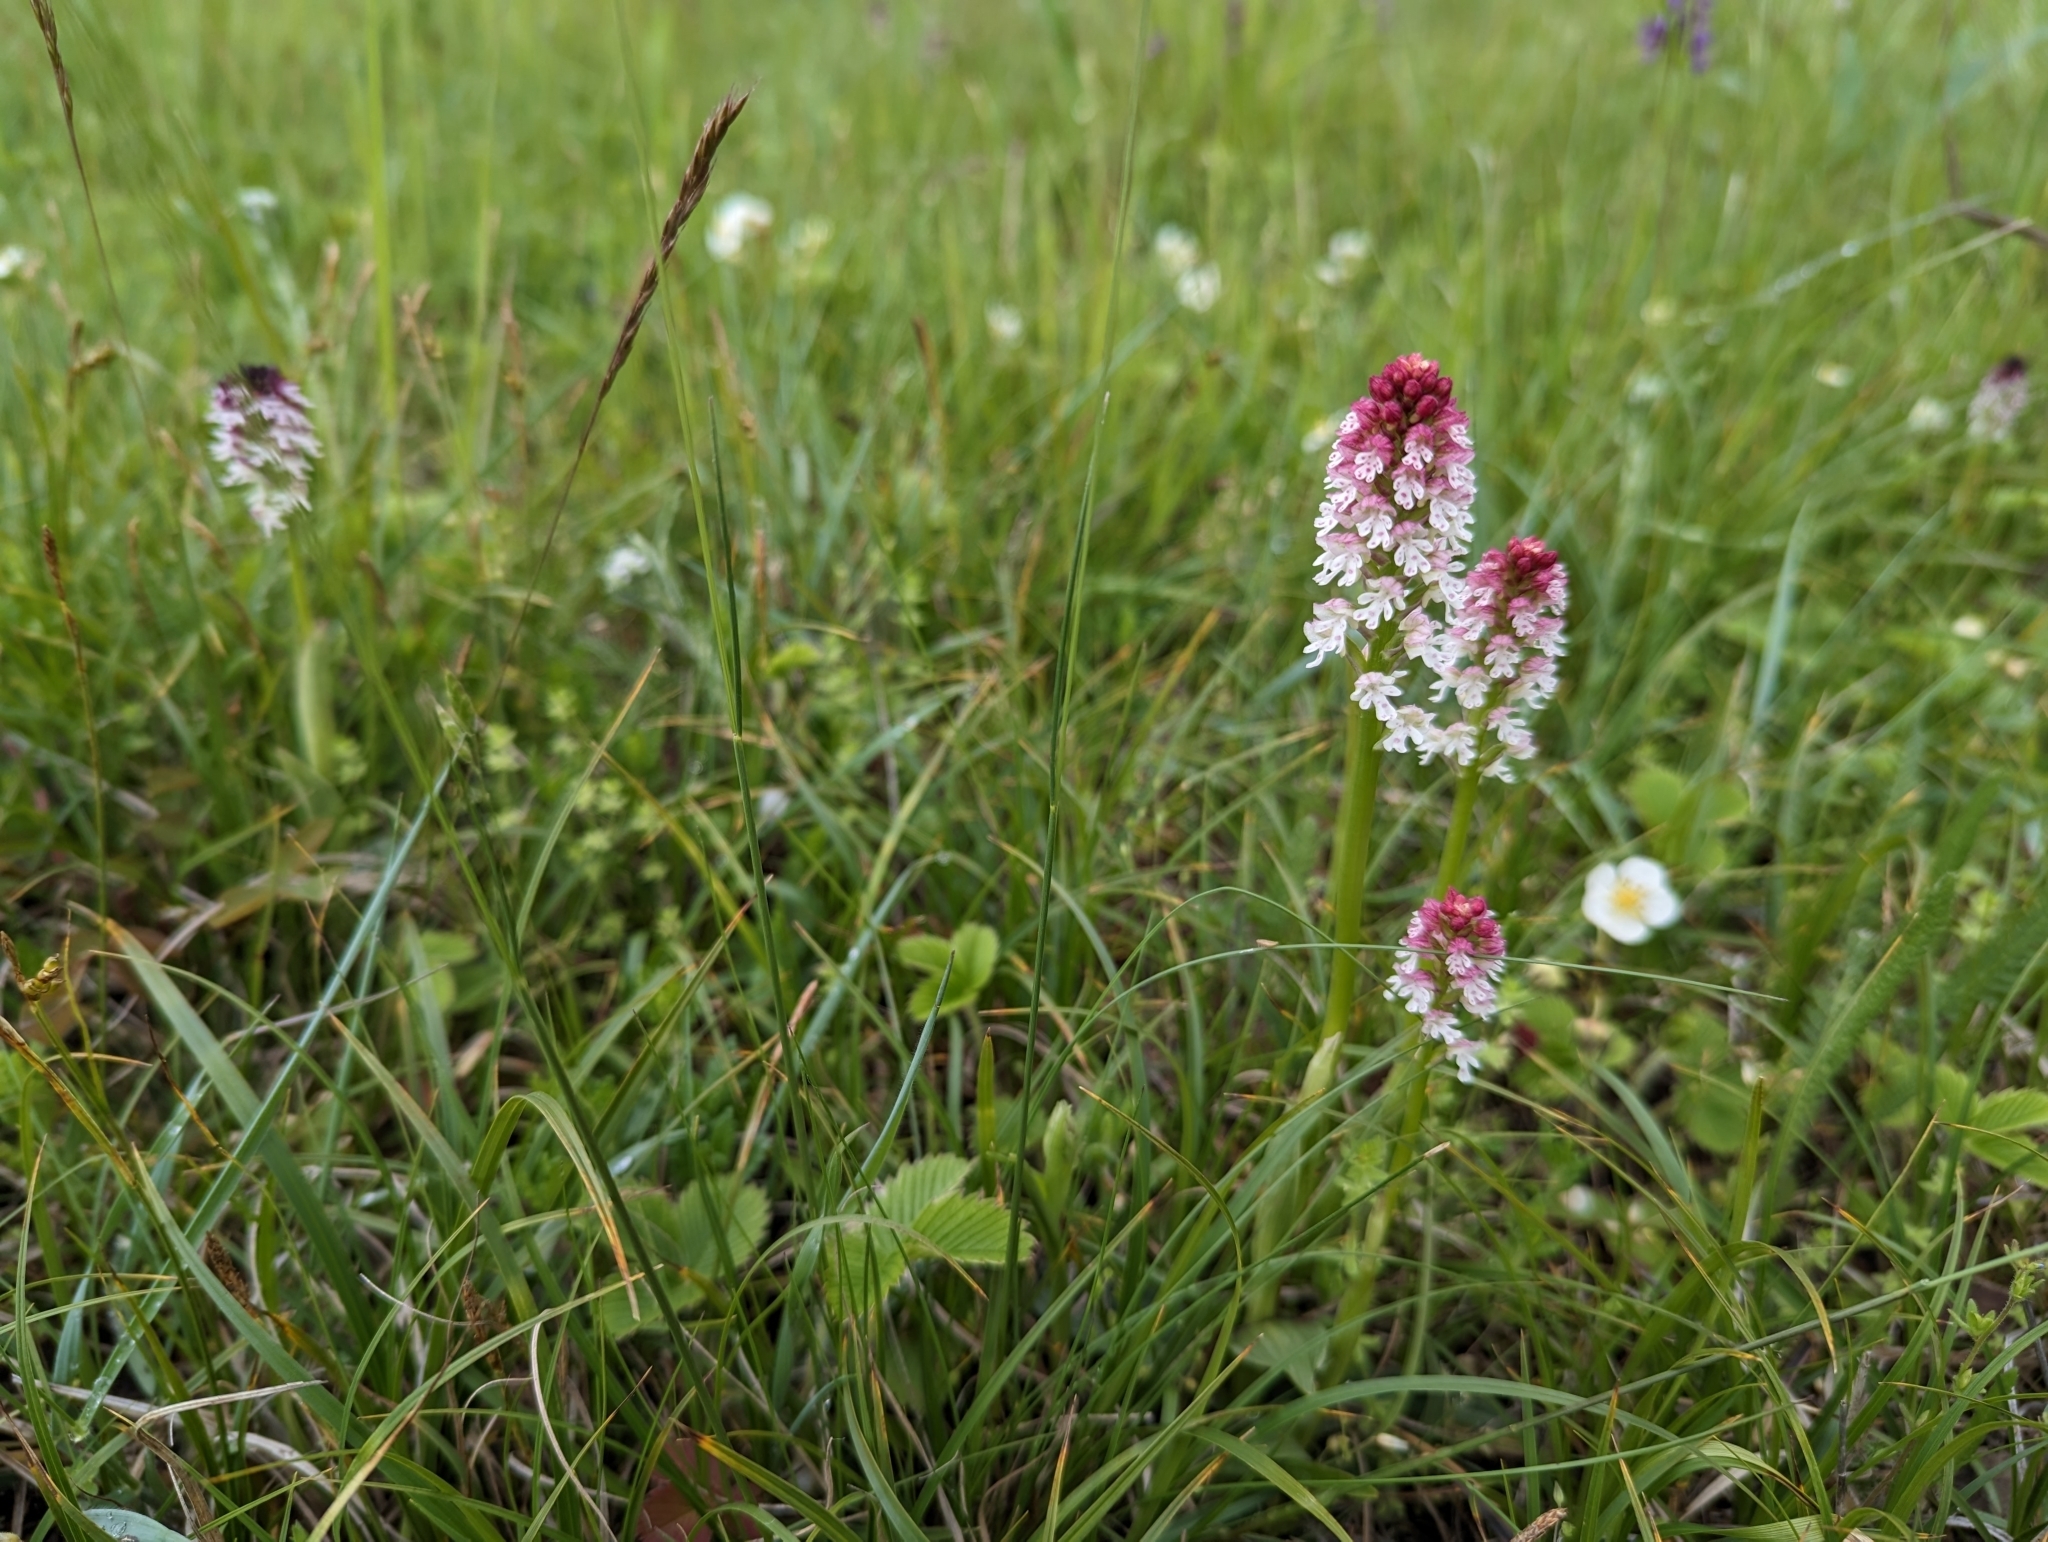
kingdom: Plantae
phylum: Tracheophyta
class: Liliopsida
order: Asparagales
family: Orchidaceae
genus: Neotinea
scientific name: Neotinea ustulata
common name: Burnt orchid
